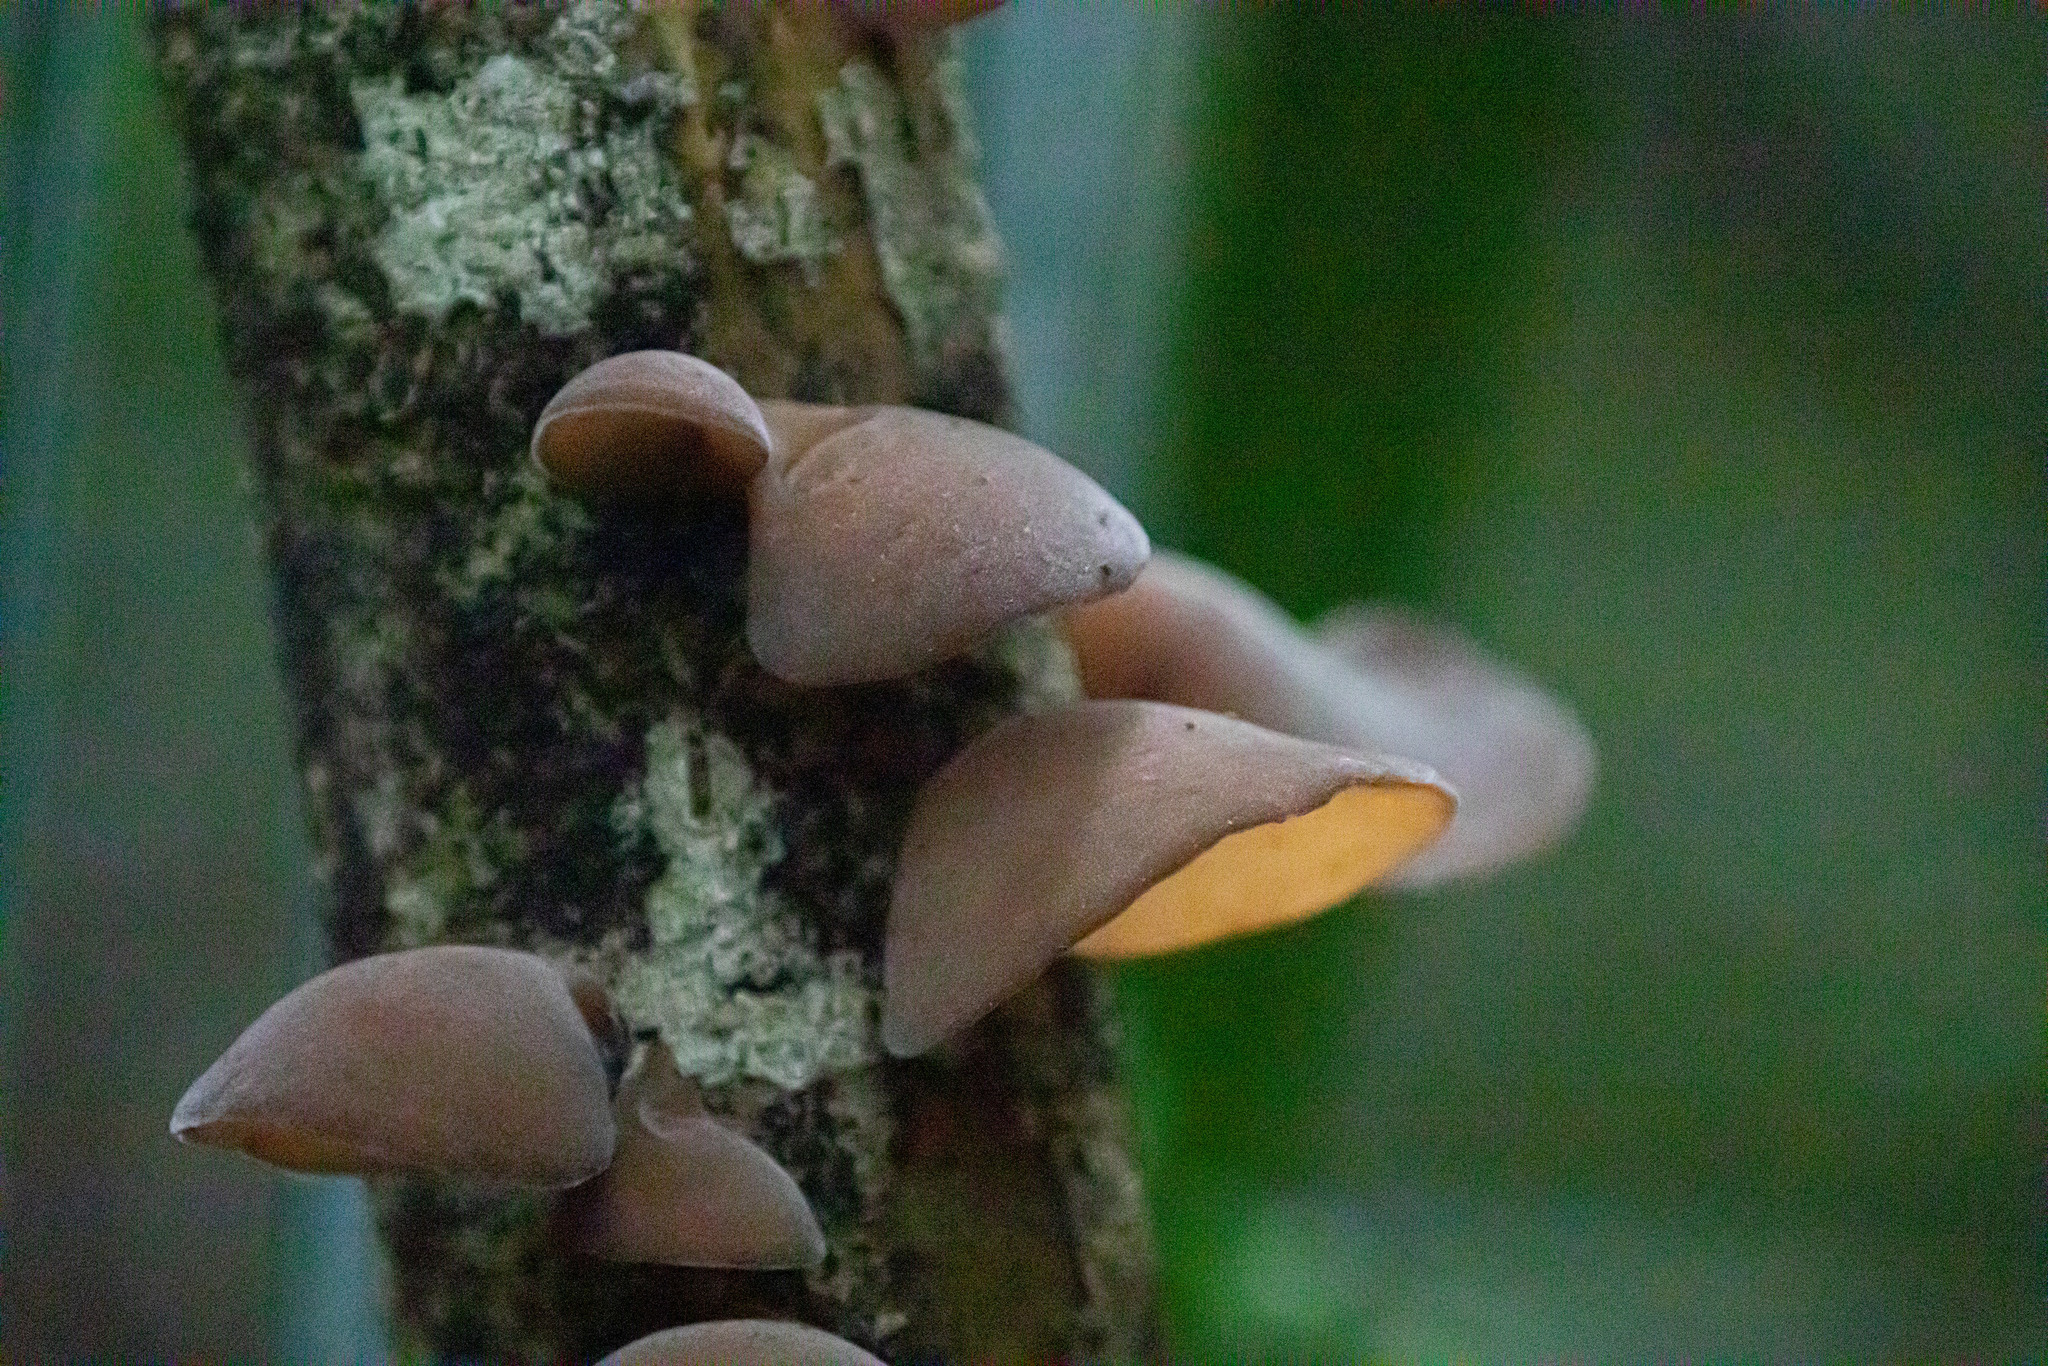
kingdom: Fungi
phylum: Basidiomycota
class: Agaricomycetes
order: Auriculariales
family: Auriculariaceae
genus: Auricularia
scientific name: Auricularia cornea
